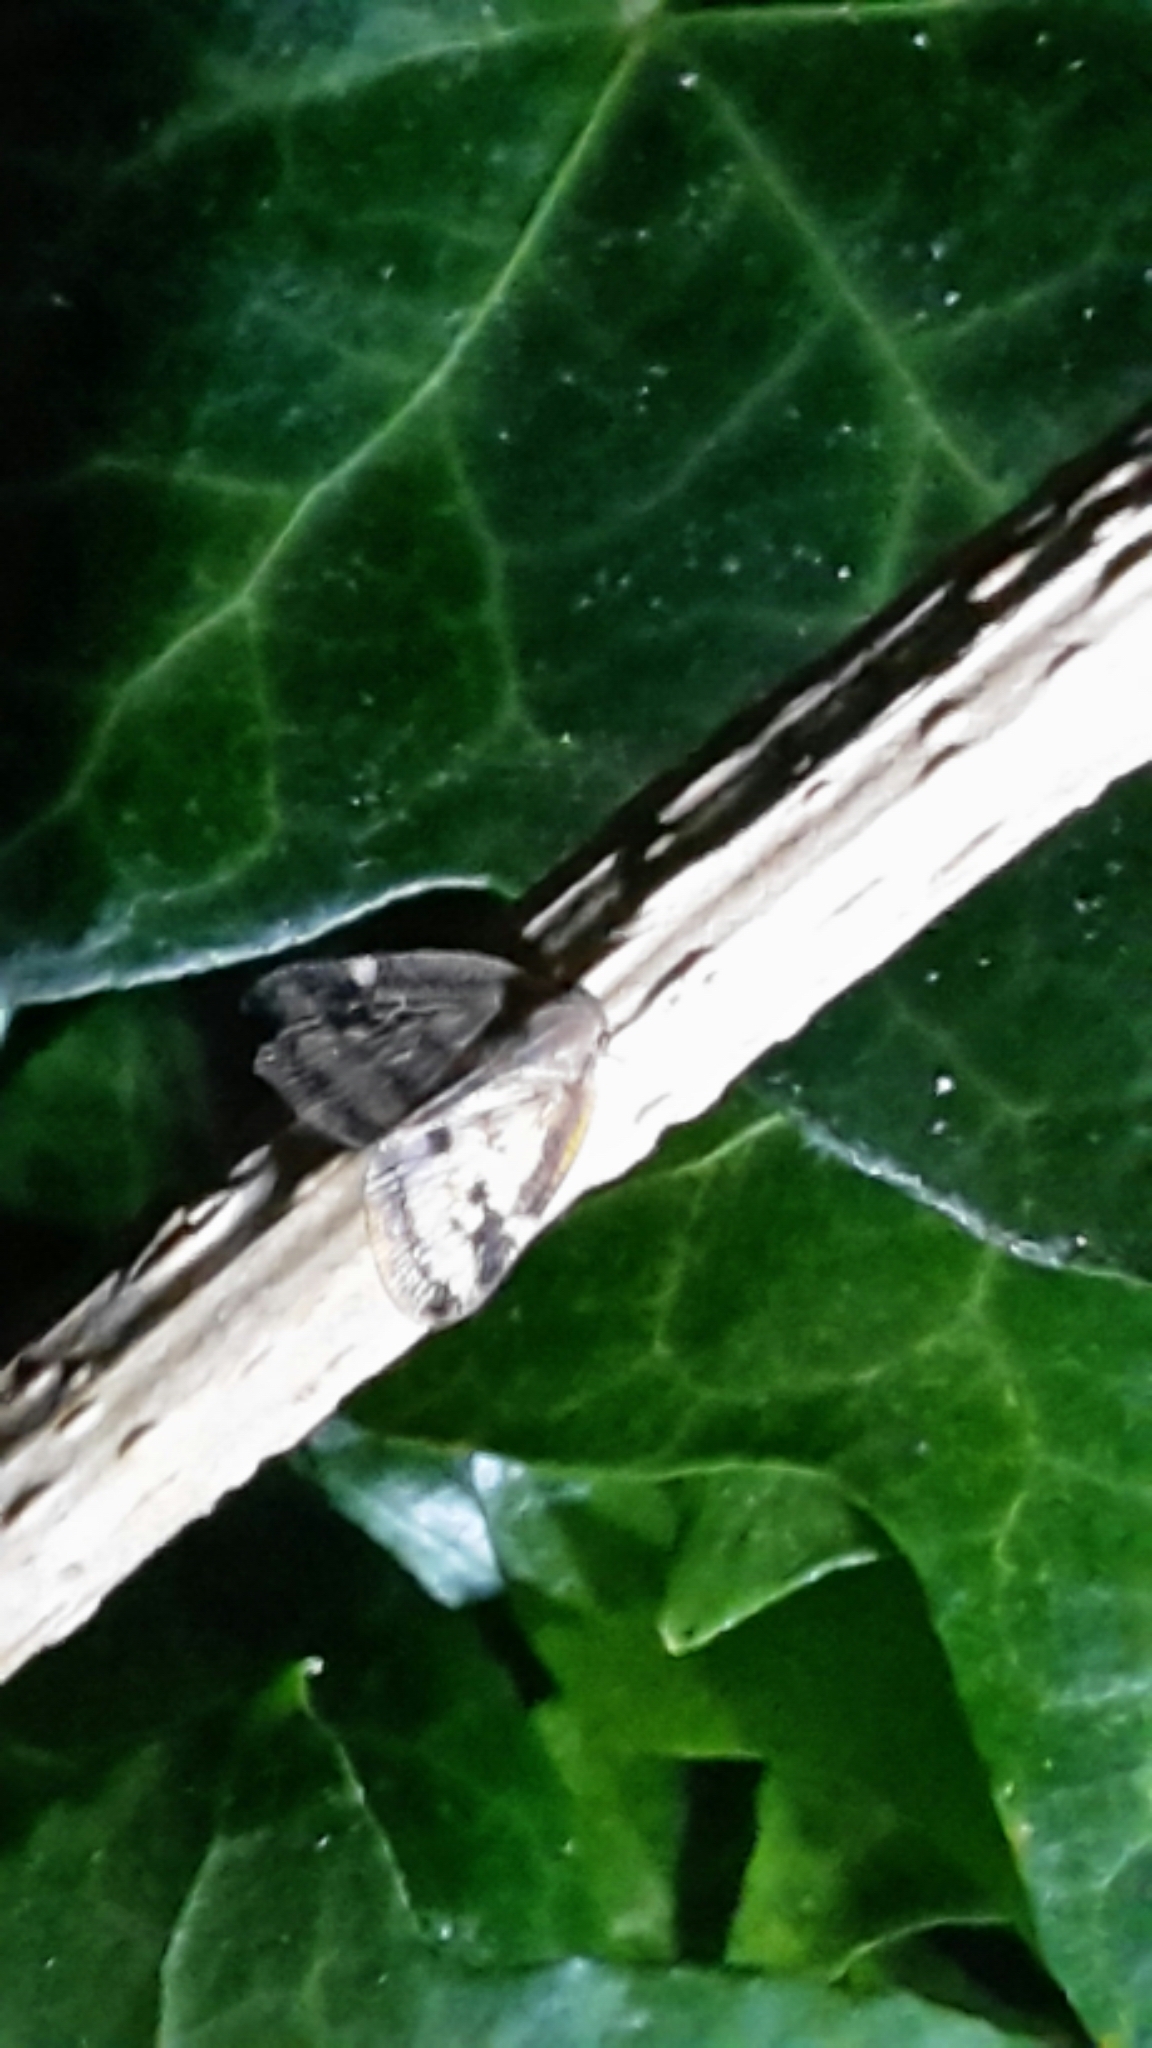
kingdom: Animalia
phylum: Arthropoda
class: Insecta
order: Hemiptera
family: Ricaniidae
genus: Scolypopa
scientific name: Scolypopa australis
